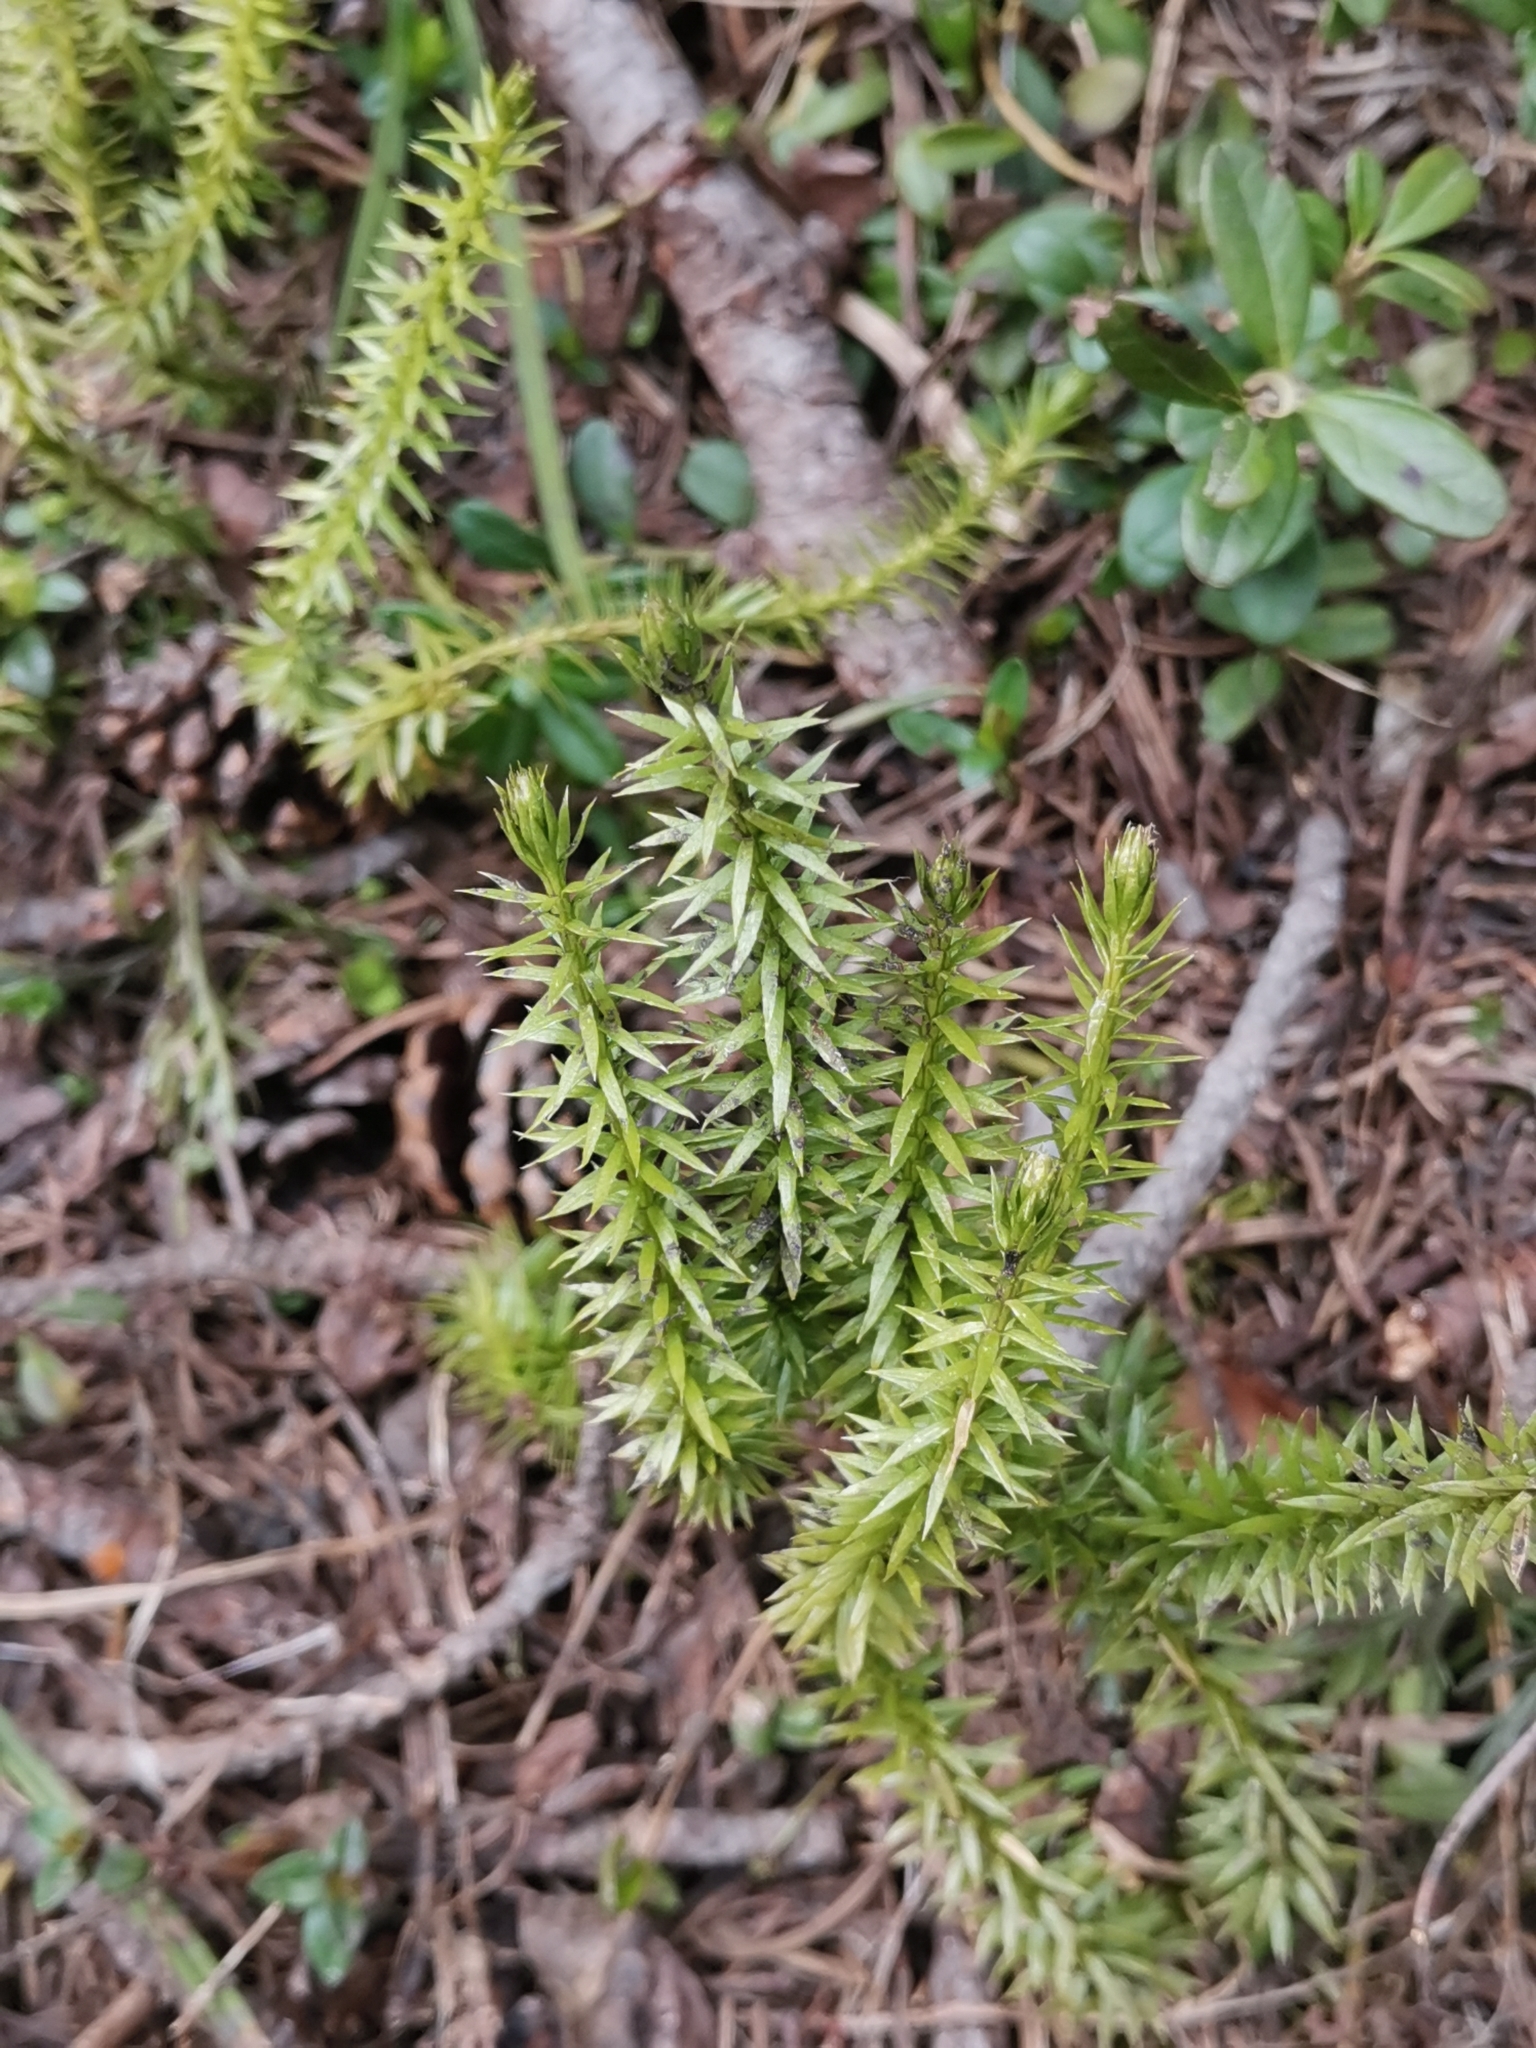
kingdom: Plantae
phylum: Tracheophyta
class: Lycopodiopsida
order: Lycopodiales
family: Lycopodiaceae
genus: Spinulum
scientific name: Spinulum annotinum
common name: Interrupted club-moss
